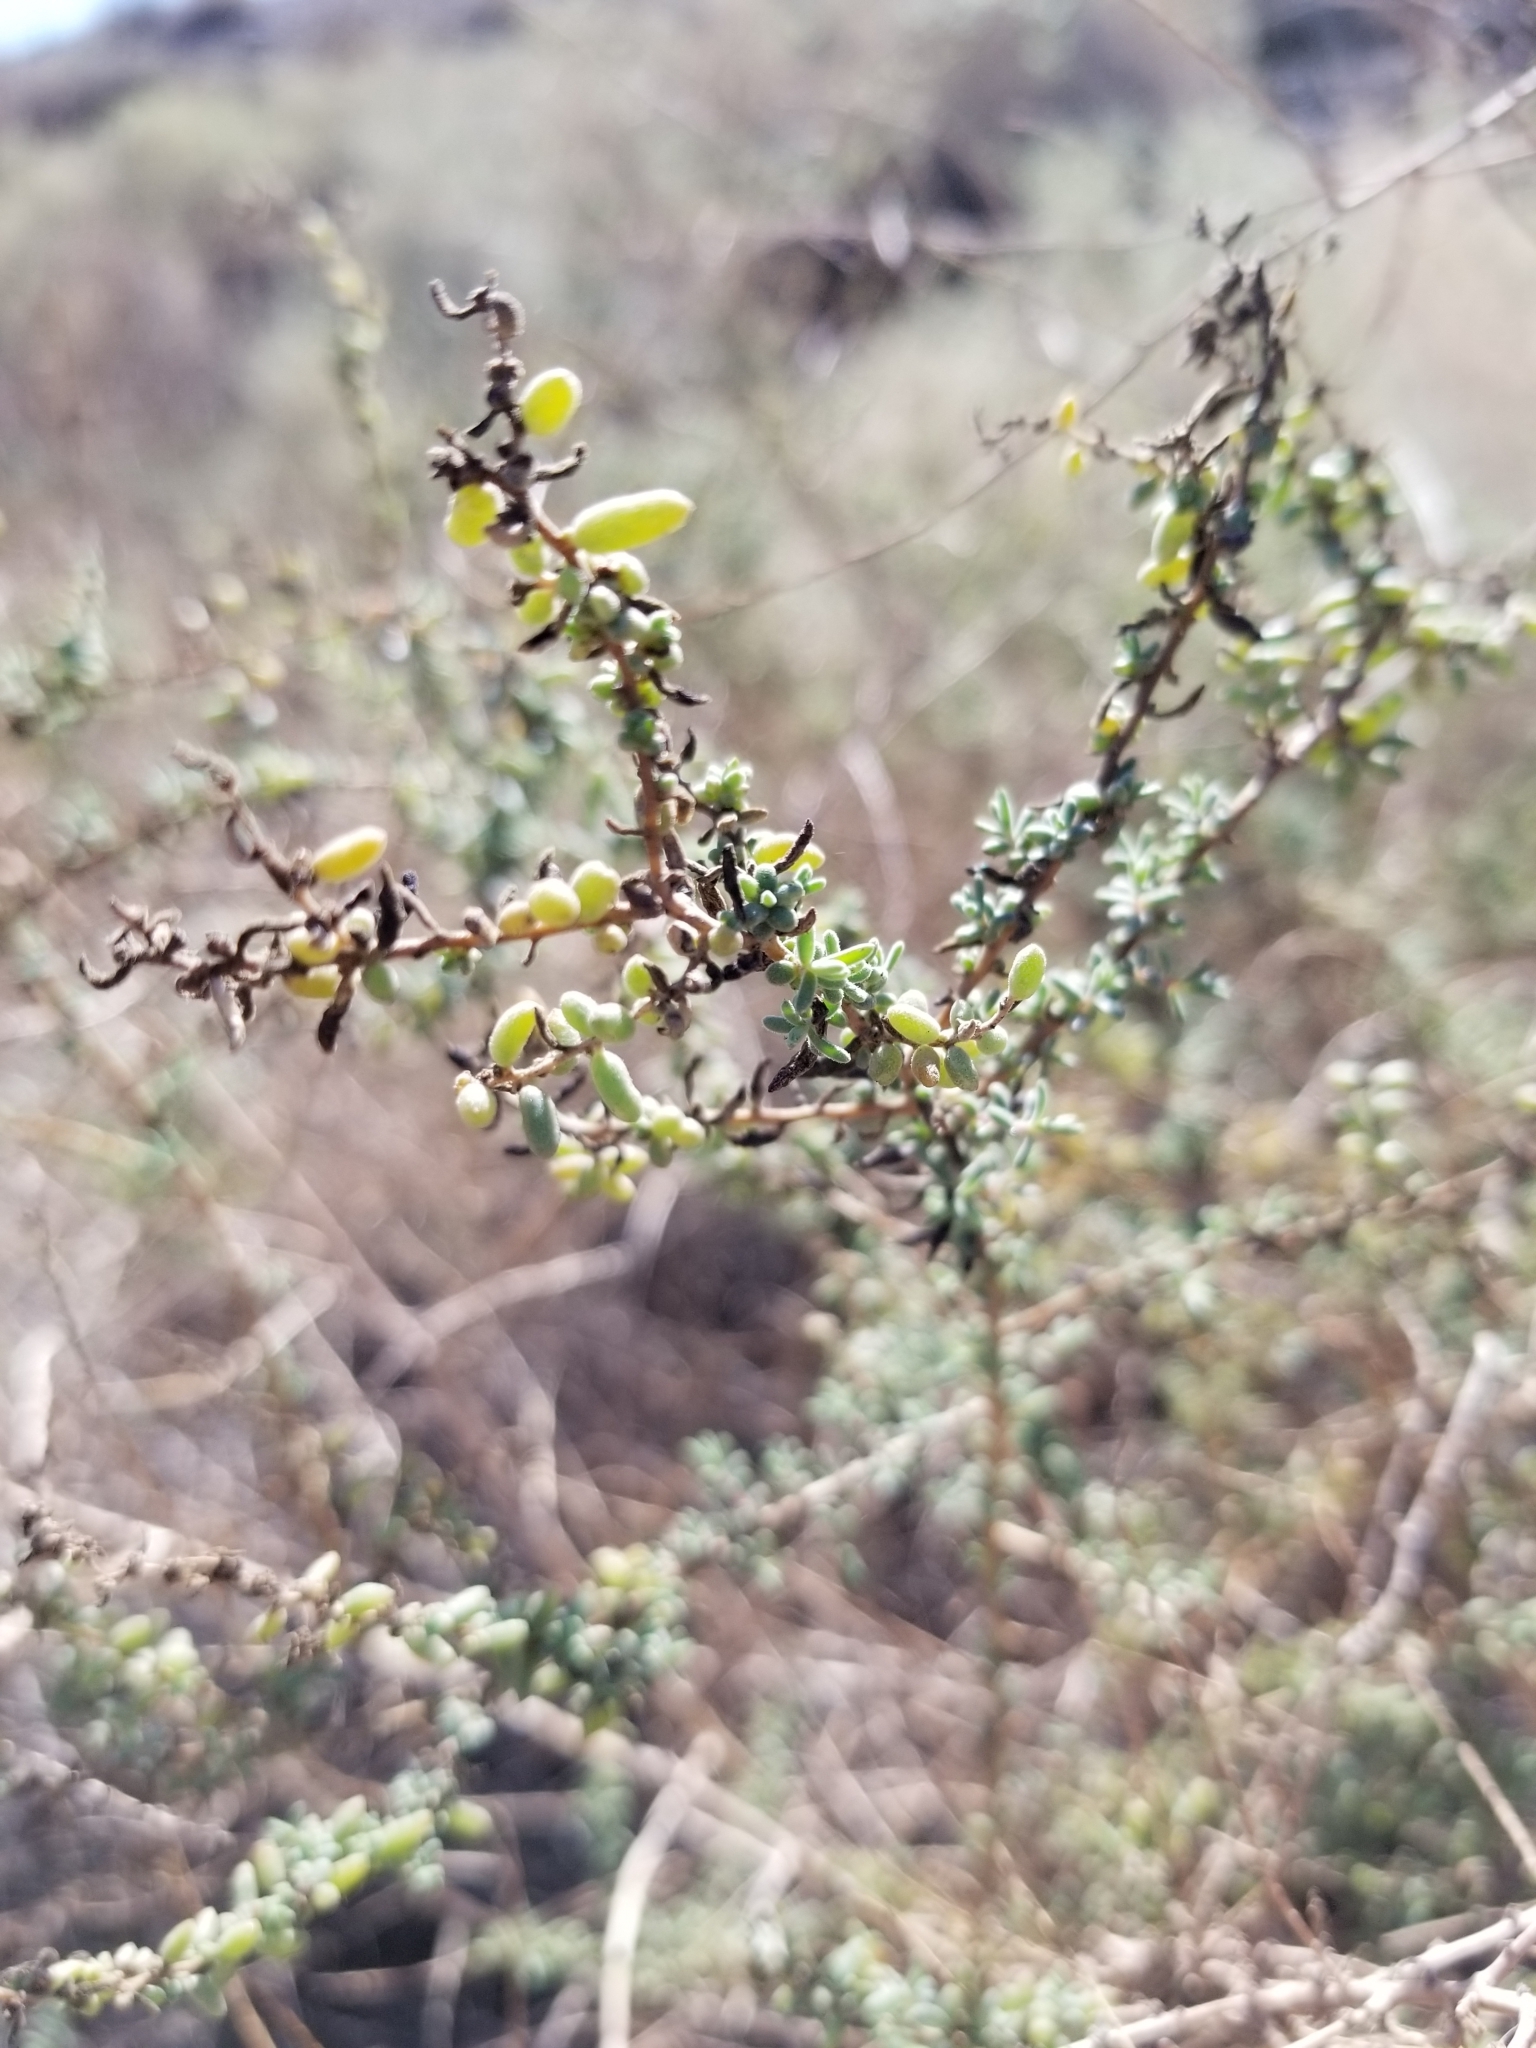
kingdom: Plantae
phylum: Tracheophyta
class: Magnoliopsida
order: Caryophyllales
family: Amaranthaceae
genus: Suaeda
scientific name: Suaeda nigra
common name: Bush seepweed
